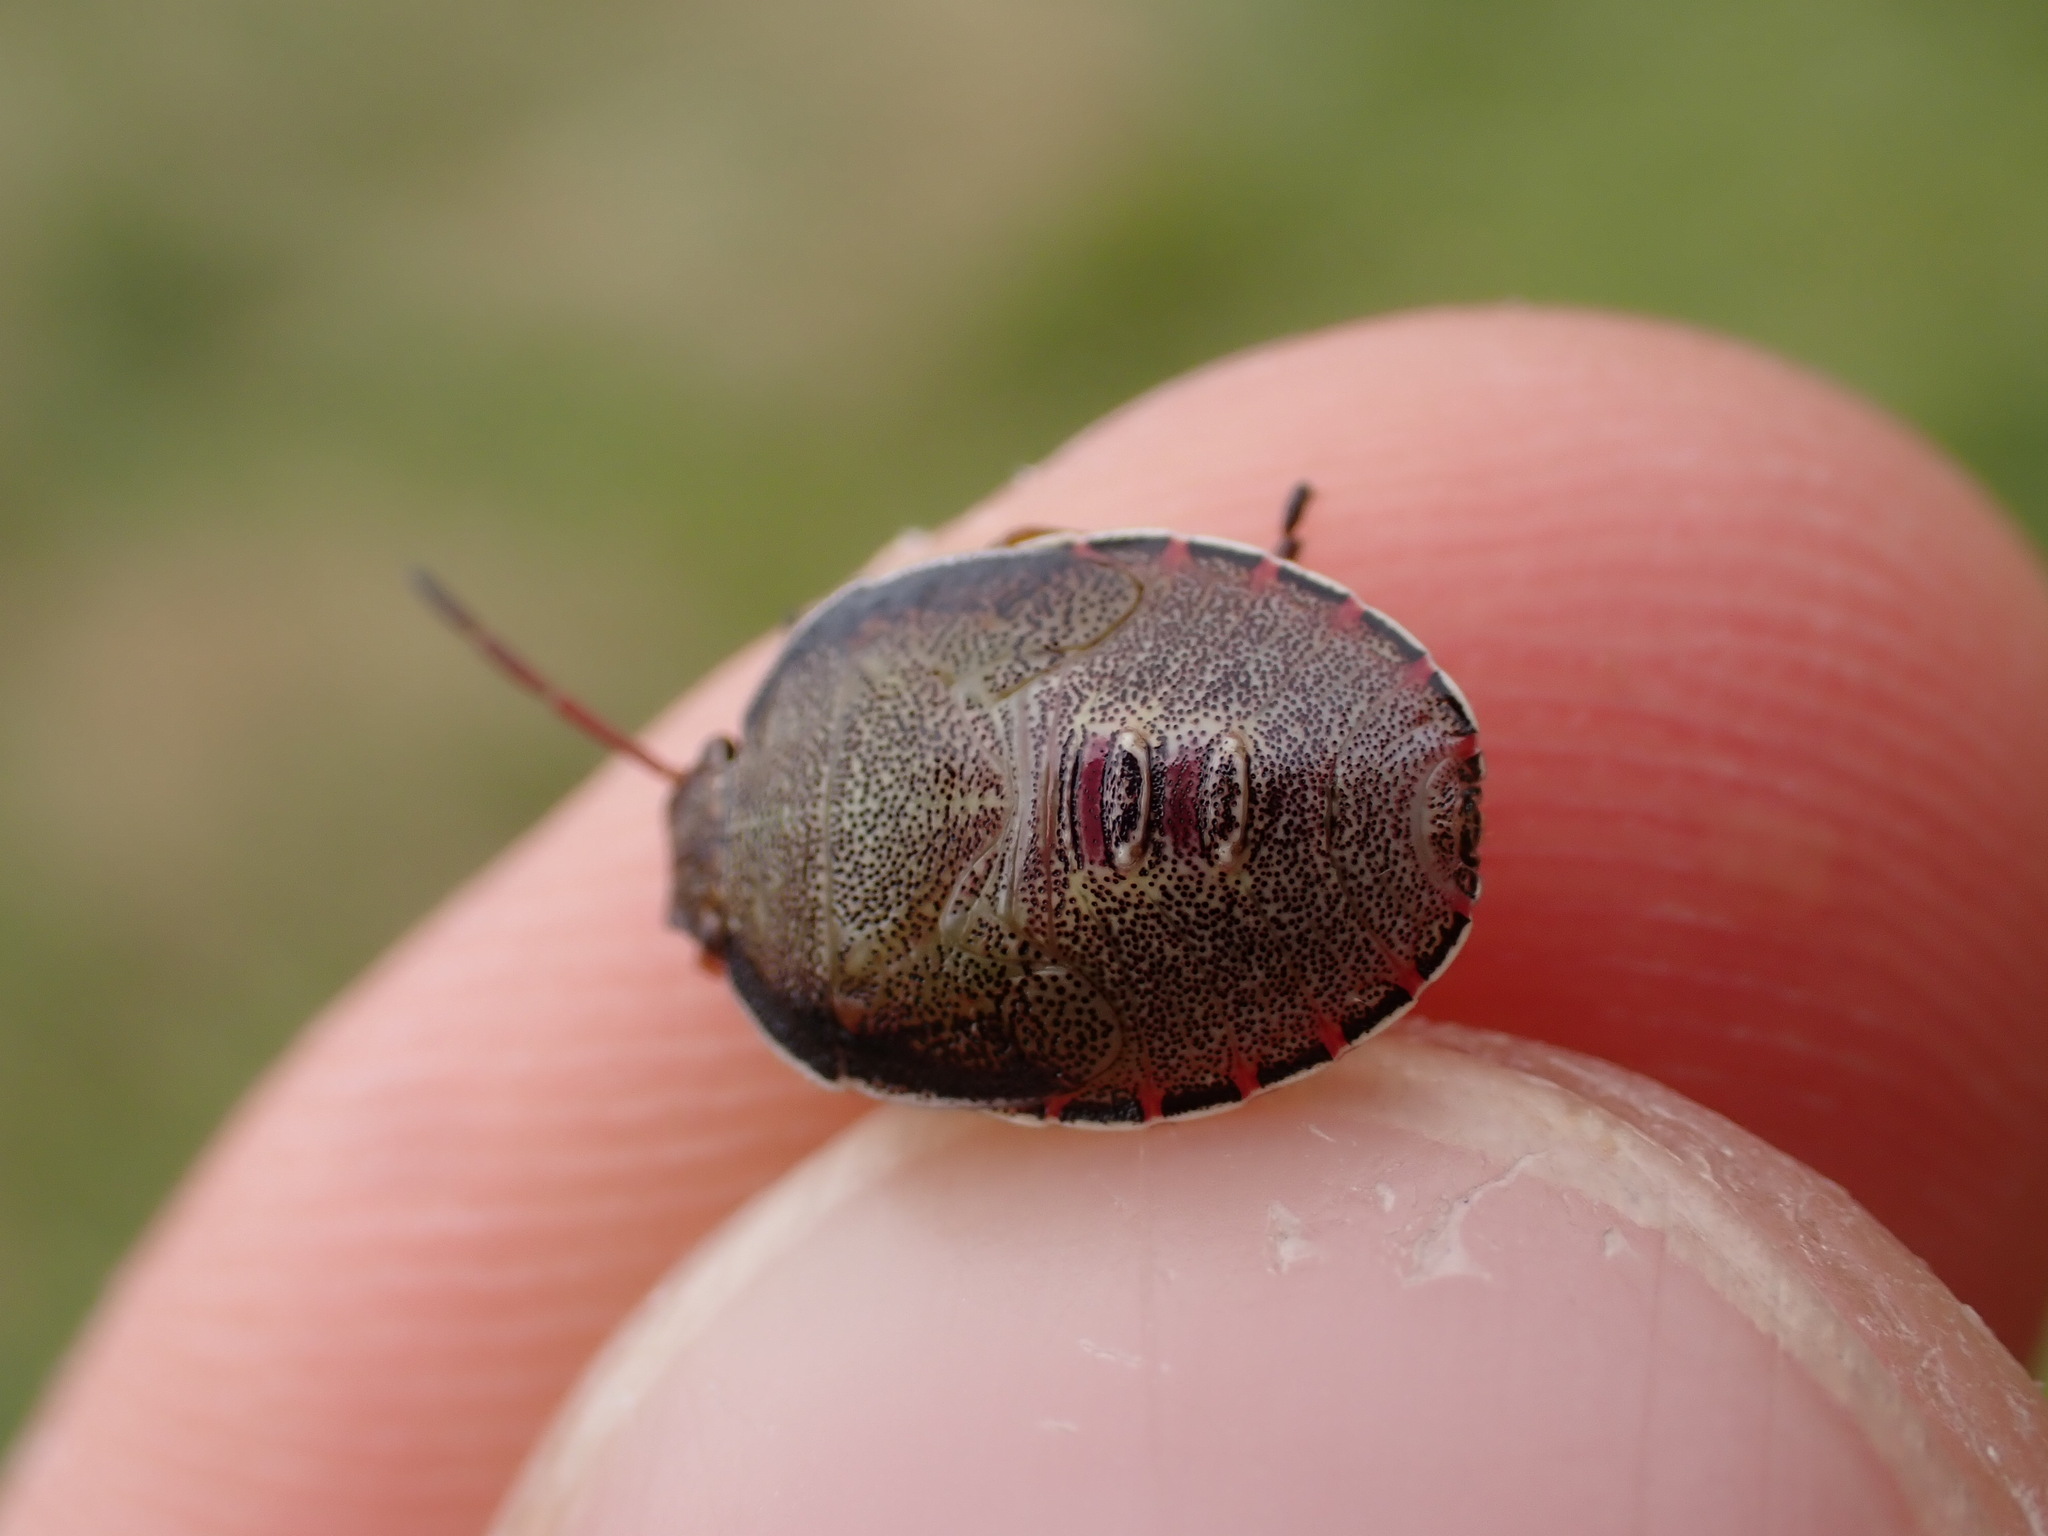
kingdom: Animalia
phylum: Arthropoda
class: Insecta
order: Hemiptera
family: Pentatomidae
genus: Piezodorus
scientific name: Piezodorus lituratus
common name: Stink bug
